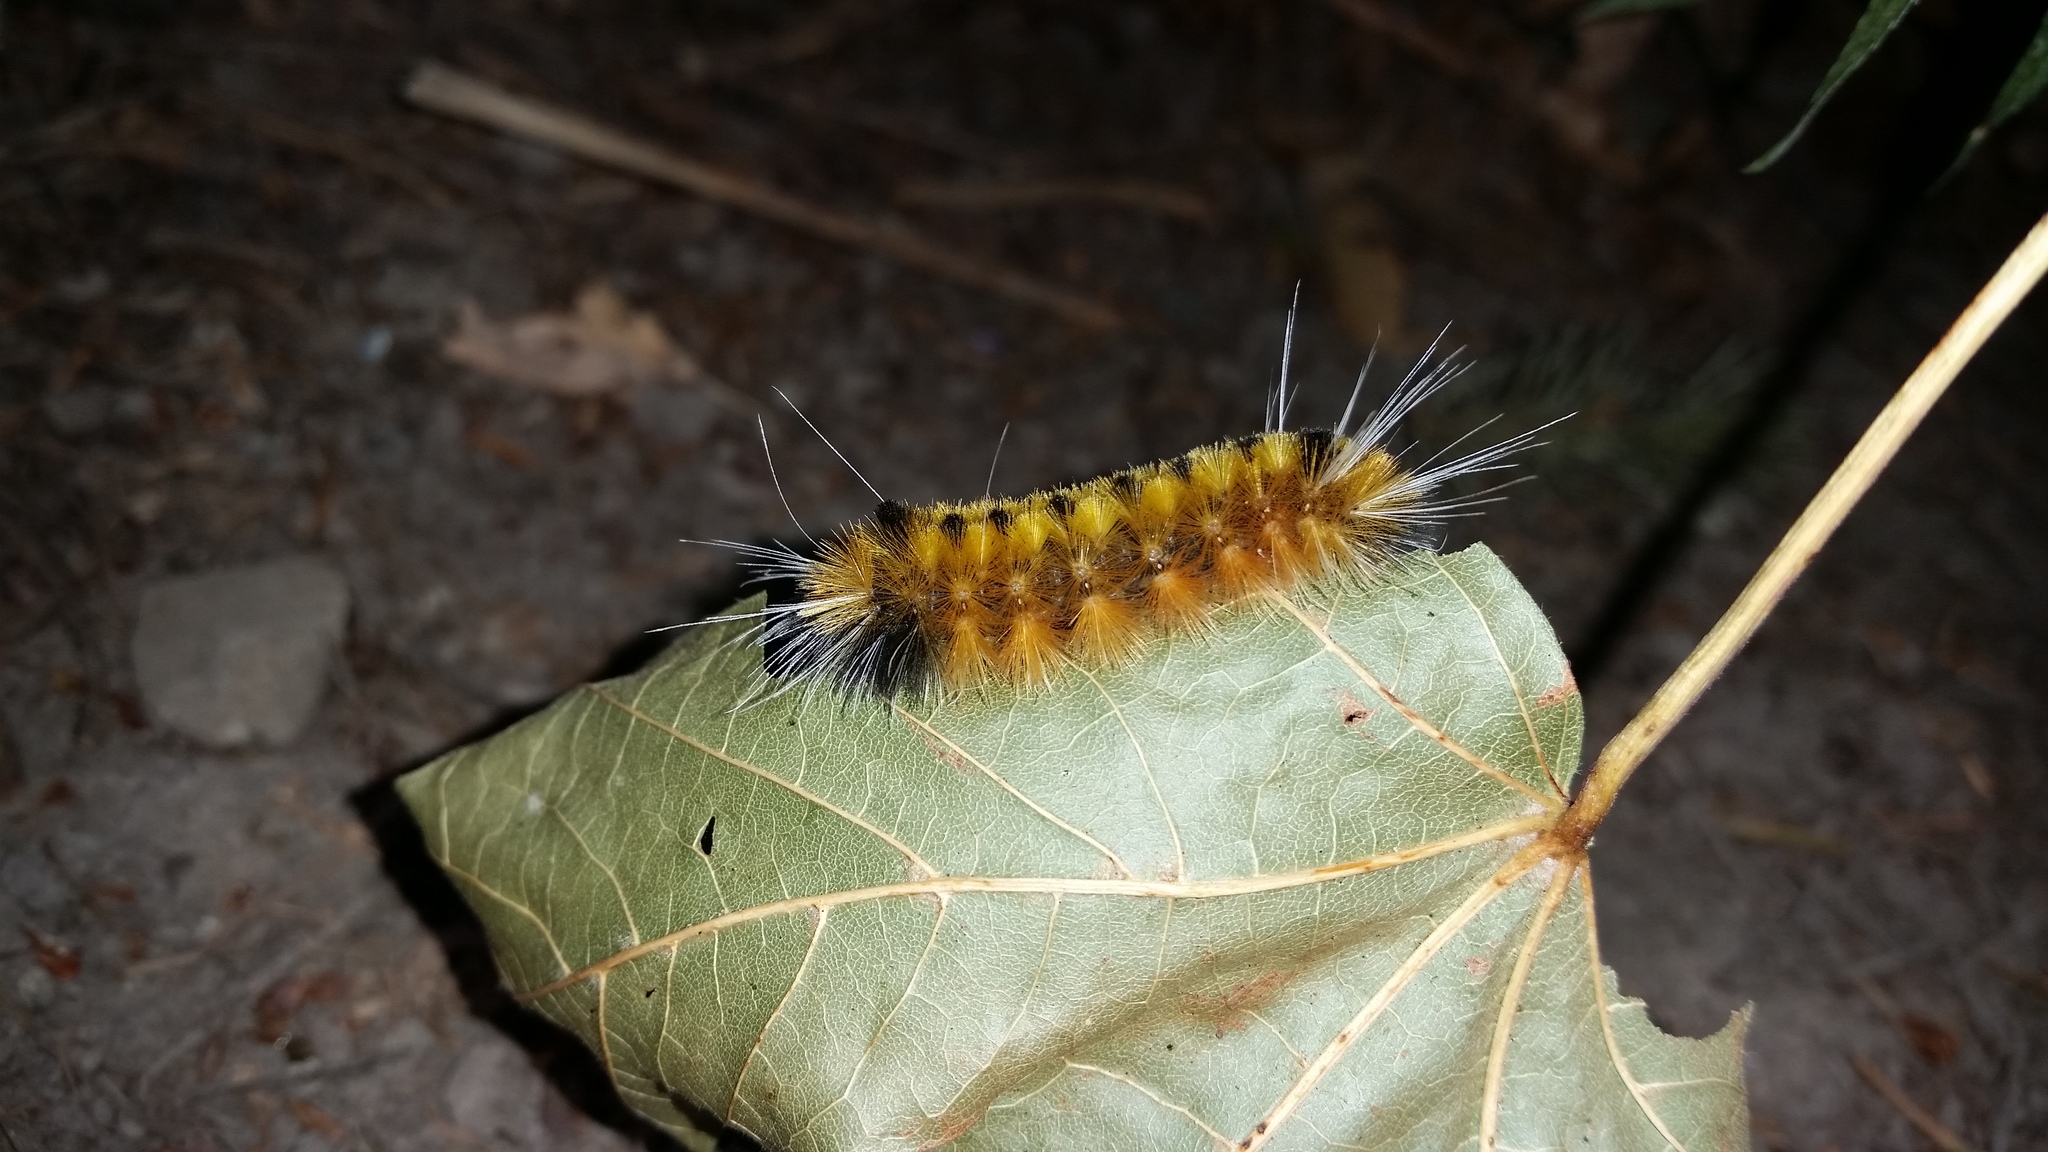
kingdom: Animalia
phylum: Arthropoda
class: Insecta
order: Lepidoptera
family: Erebidae
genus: Lophocampa
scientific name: Lophocampa maculata
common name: Spotted tussock moth
